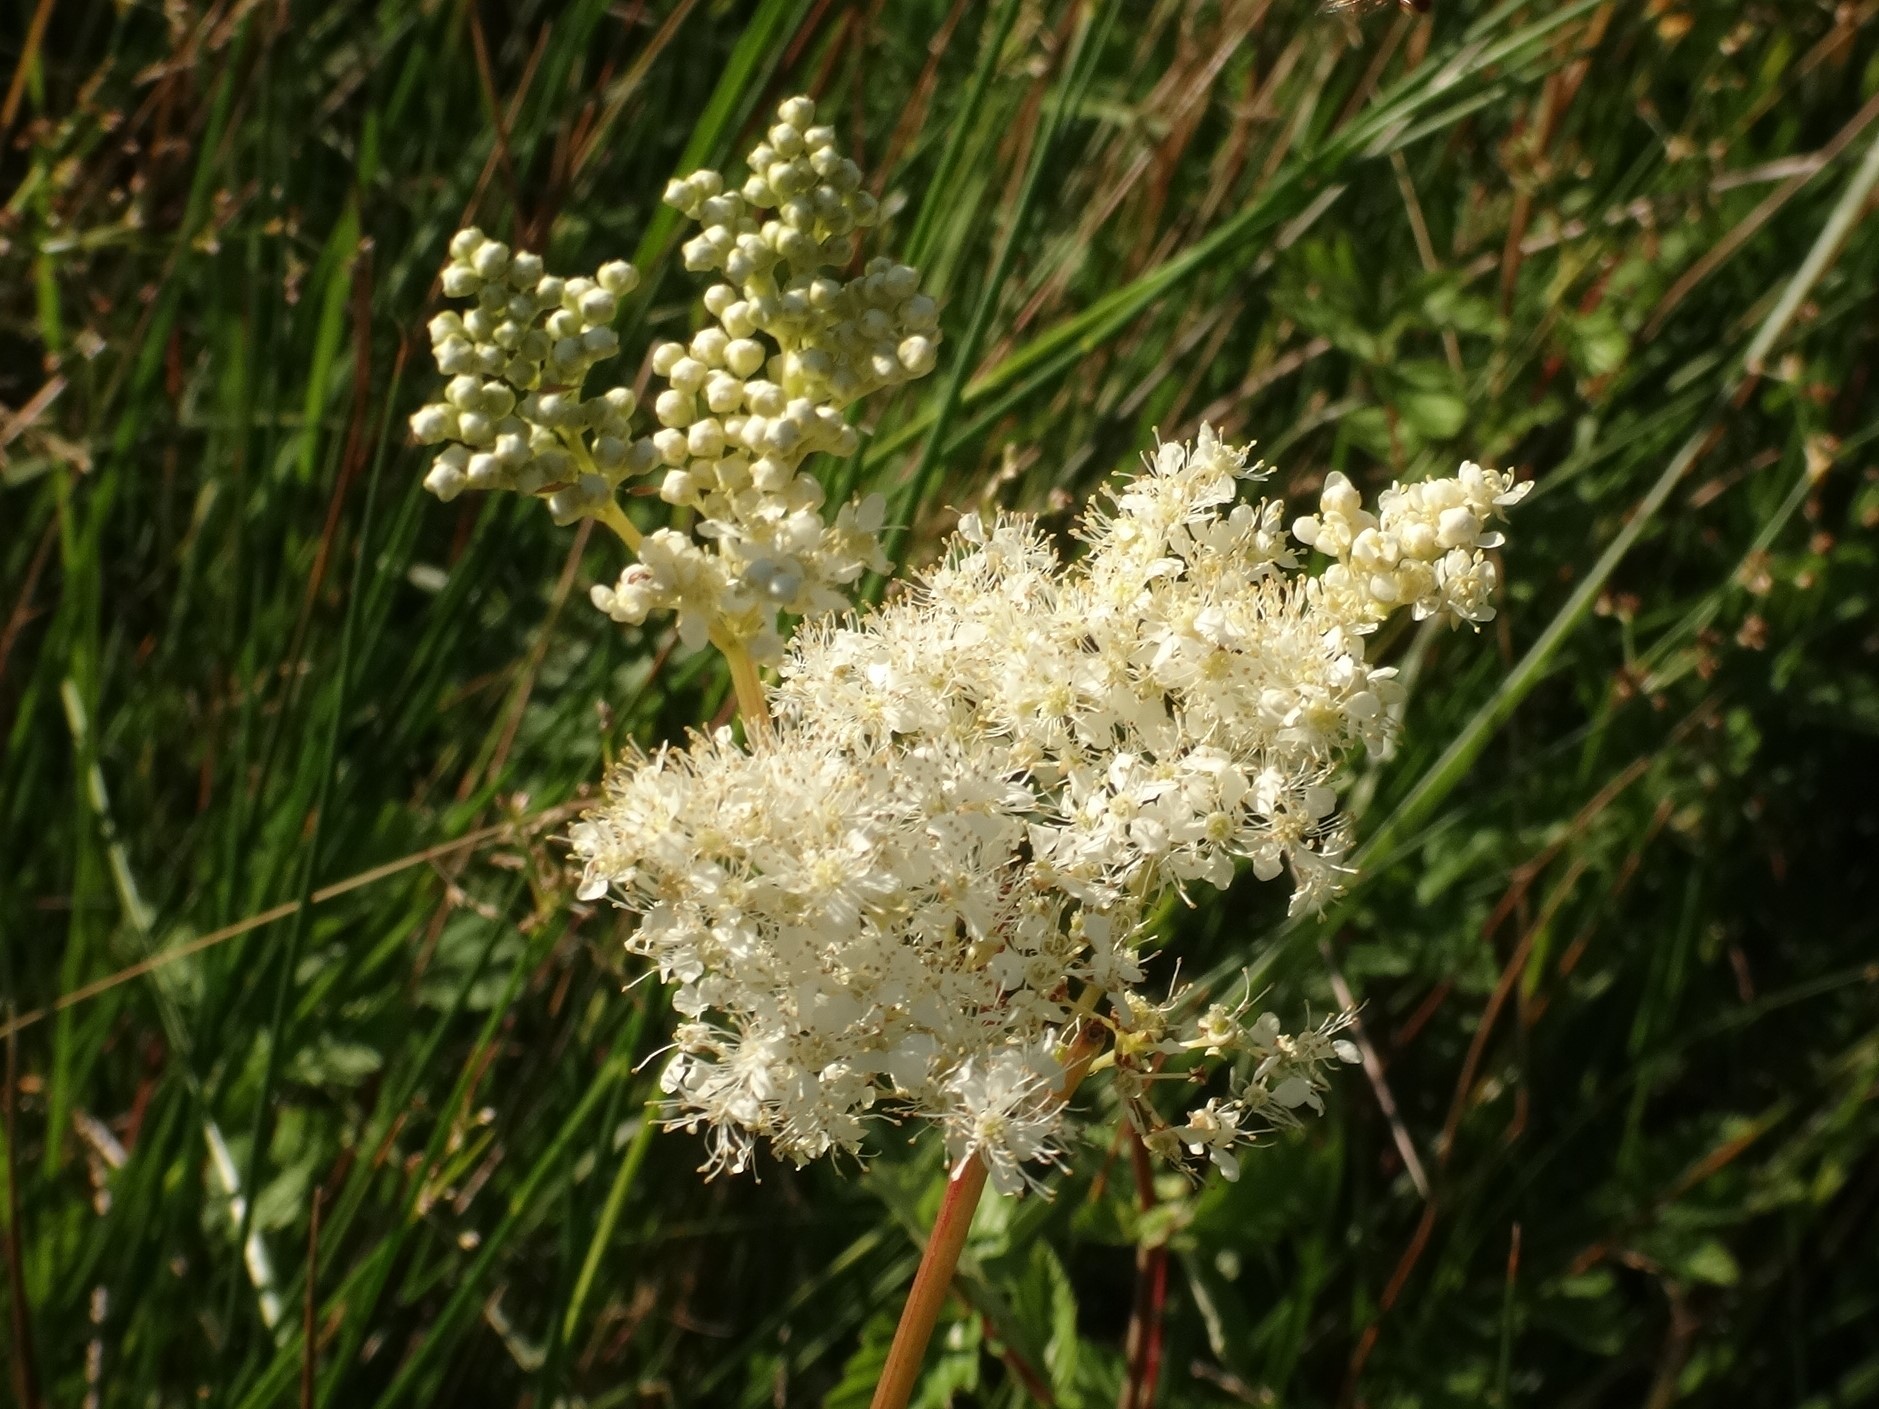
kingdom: Plantae
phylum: Tracheophyta
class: Magnoliopsida
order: Rosales
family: Rosaceae
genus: Filipendula
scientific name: Filipendula ulmaria
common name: Meadowsweet
